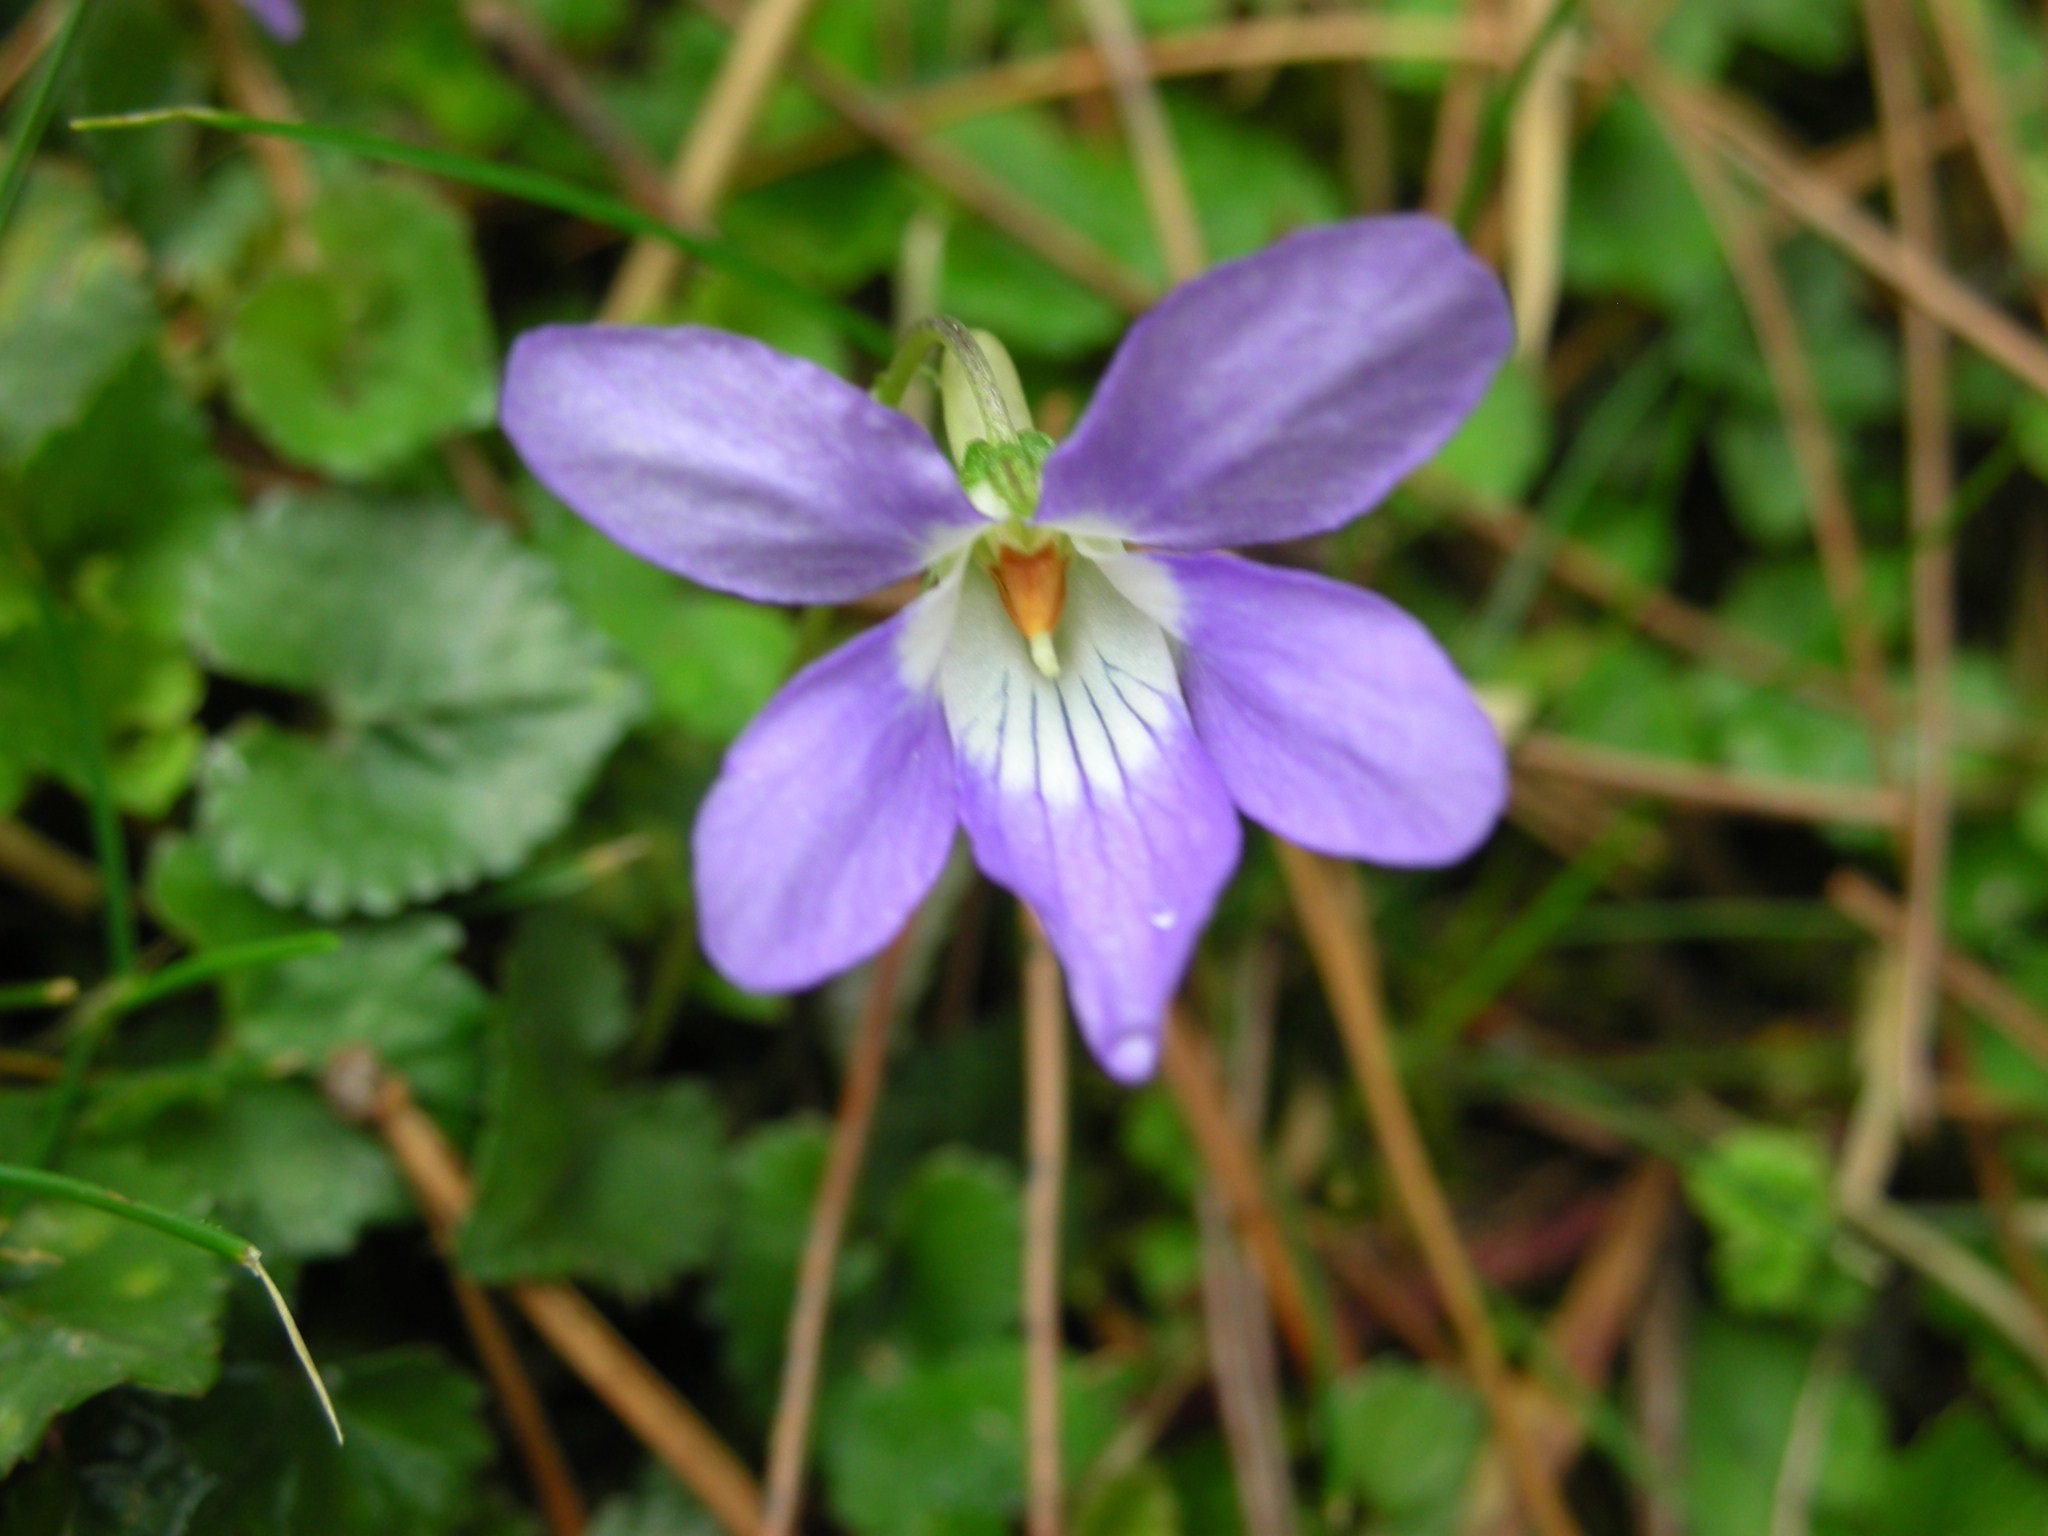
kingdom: Plantae
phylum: Tracheophyta
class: Magnoliopsida
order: Malpighiales
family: Violaceae
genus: Viola
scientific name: Viola grypoceras
